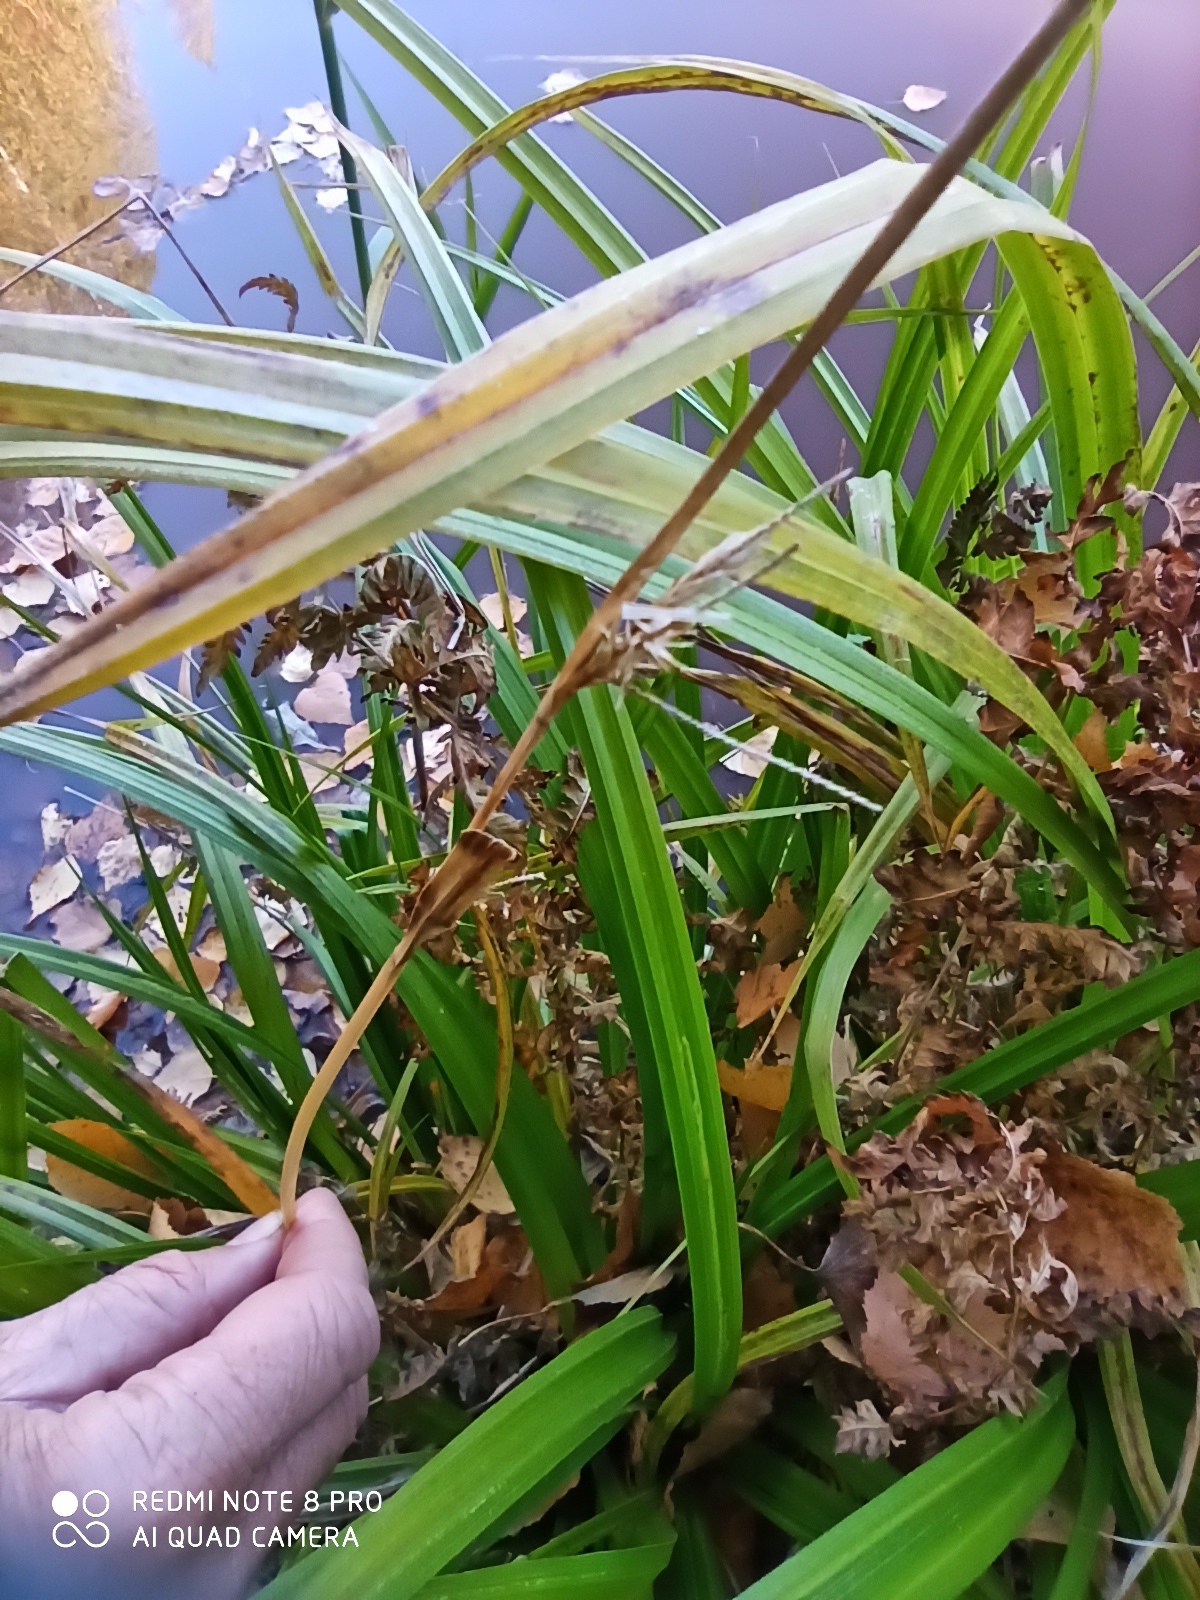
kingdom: Plantae
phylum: Tracheophyta
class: Liliopsida
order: Poales
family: Cyperaceae
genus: Carex
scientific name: Carex pseudocyperus
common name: Cyperus sedge
